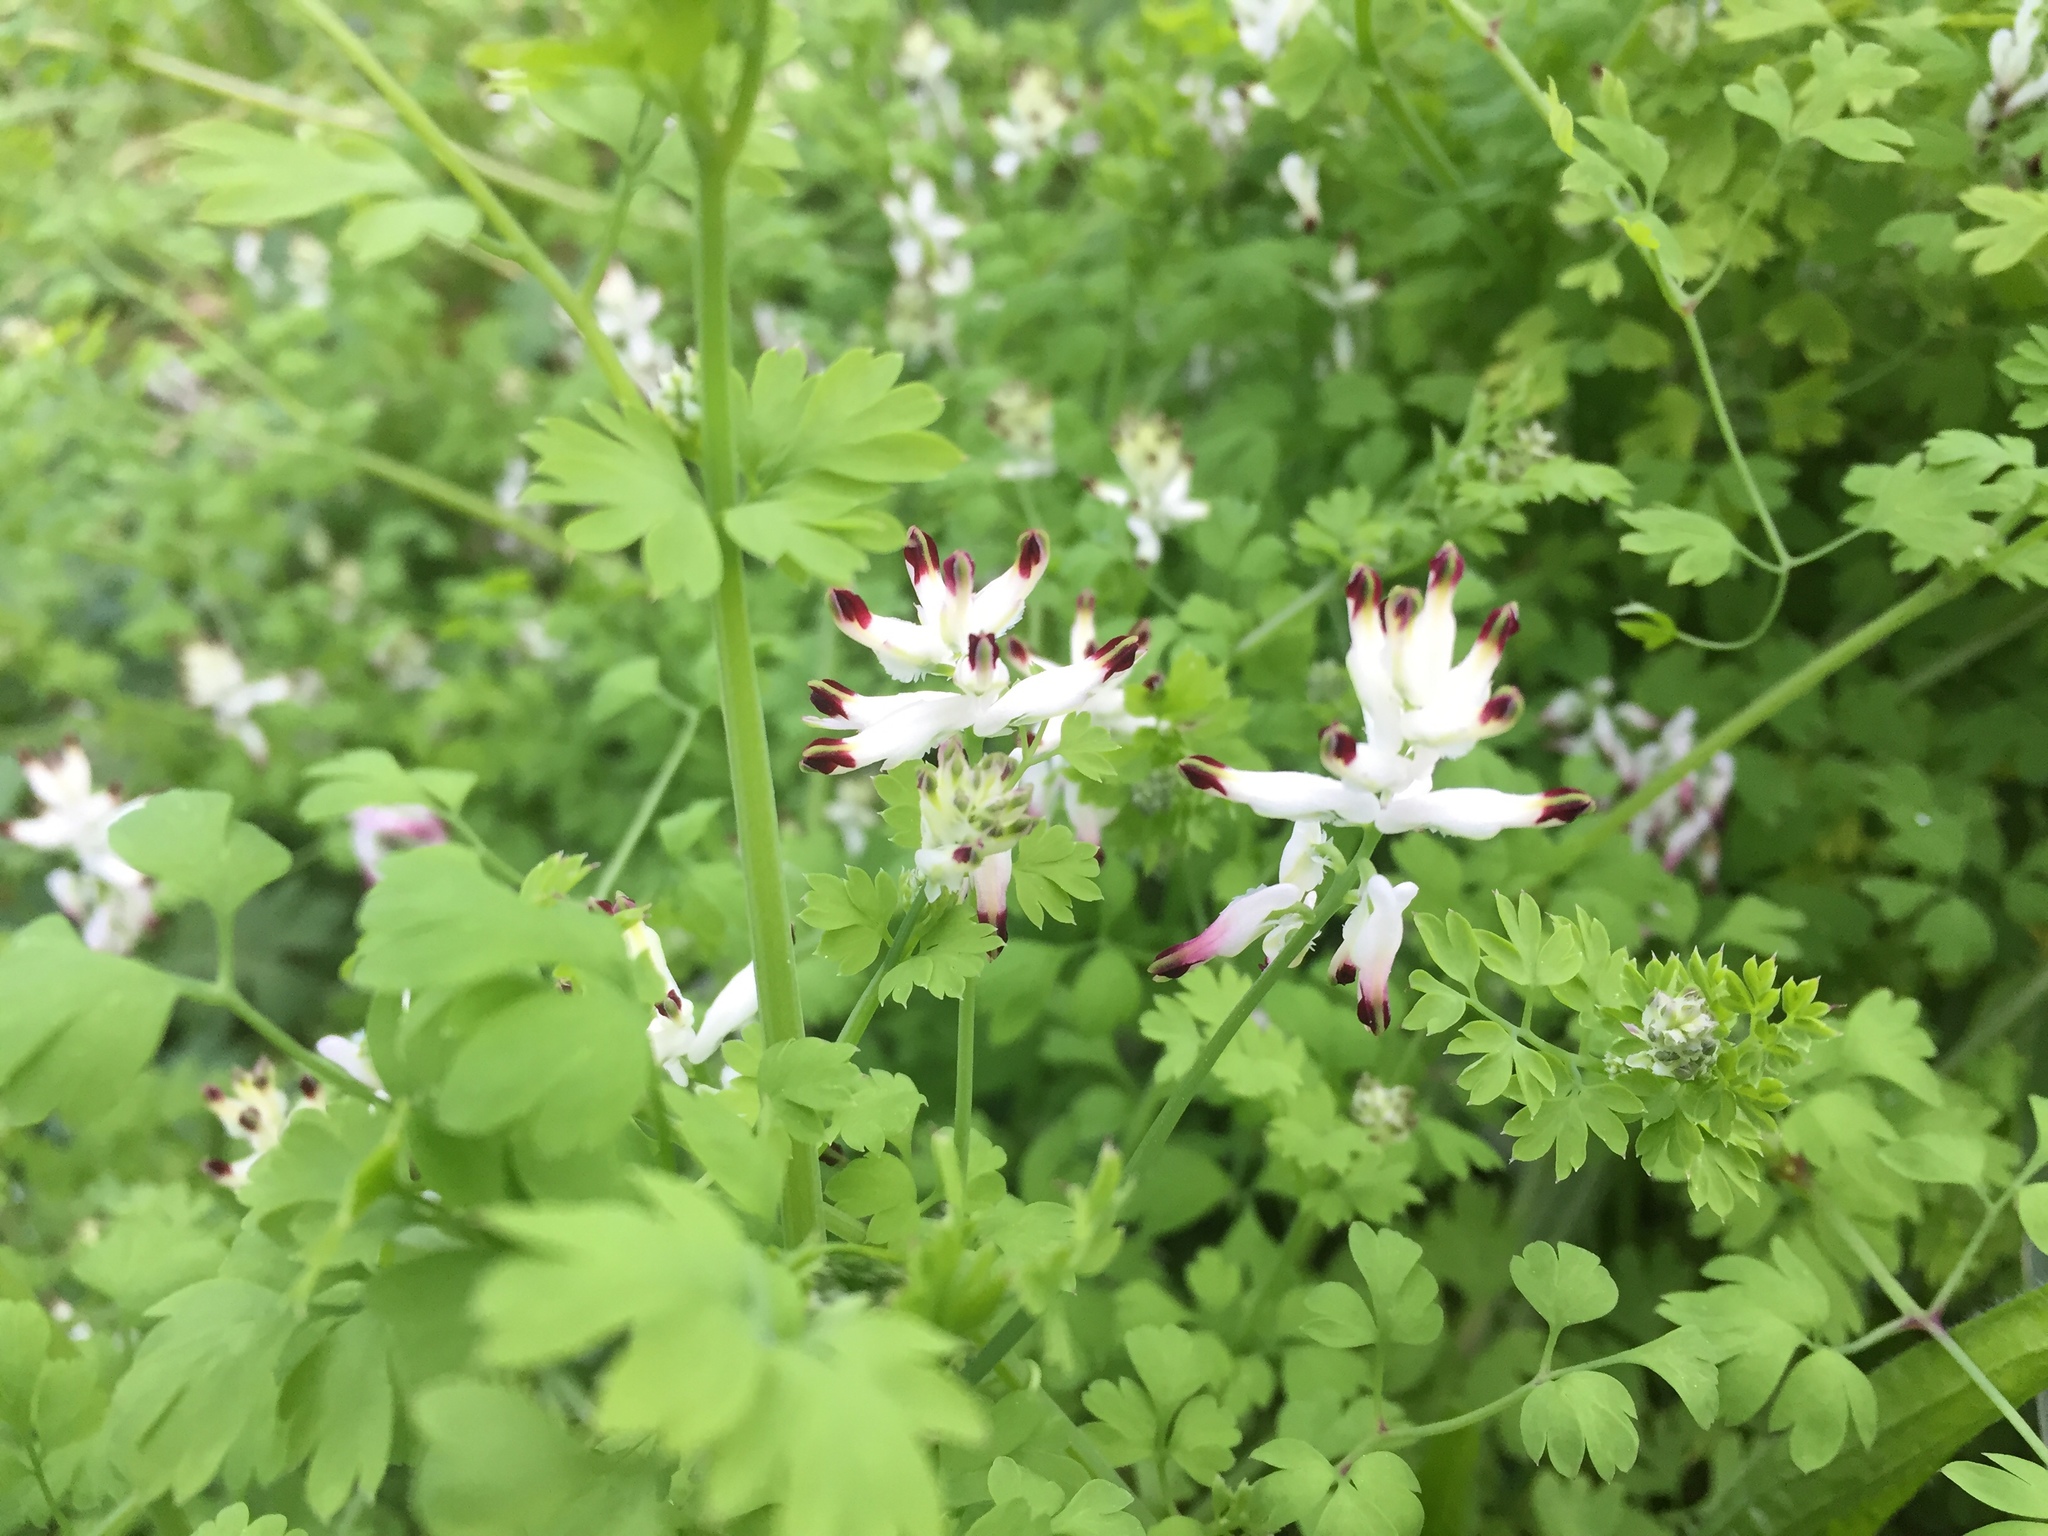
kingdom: Plantae
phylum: Tracheophyta
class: Magnoliopsida
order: Ranunculales
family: Papaveraceae
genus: Fumaria
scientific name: Fumaria capreolata
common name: White ramping-fumitory
